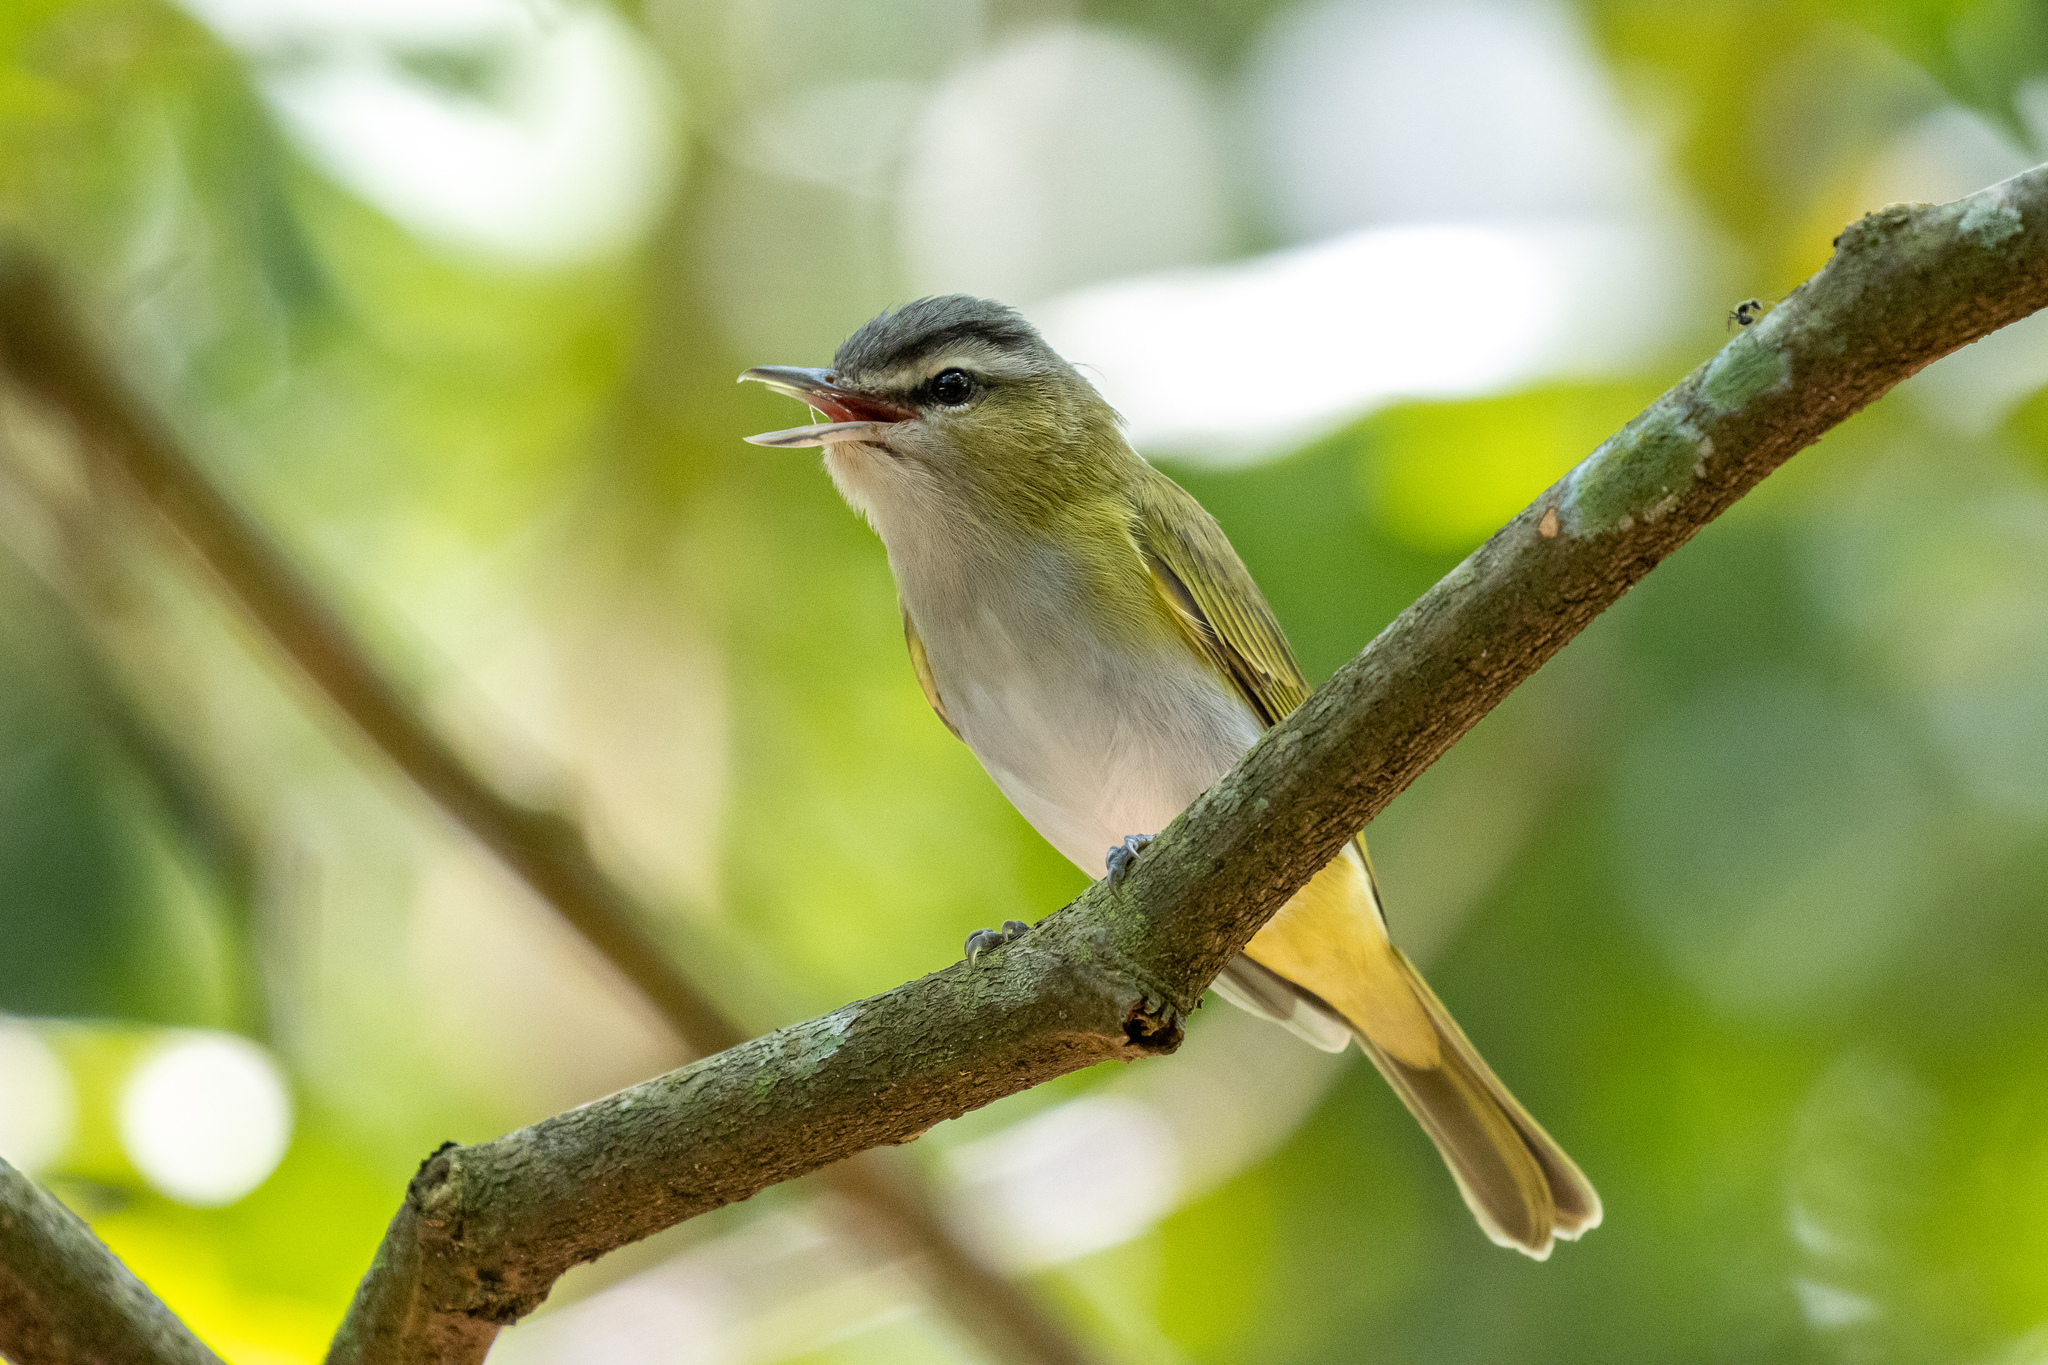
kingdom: Animalia
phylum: Chordata
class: Aves
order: Passeriformes
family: Vireonidae
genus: Vireo
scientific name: Vireo olivaceus
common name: Red-eyed vireo
